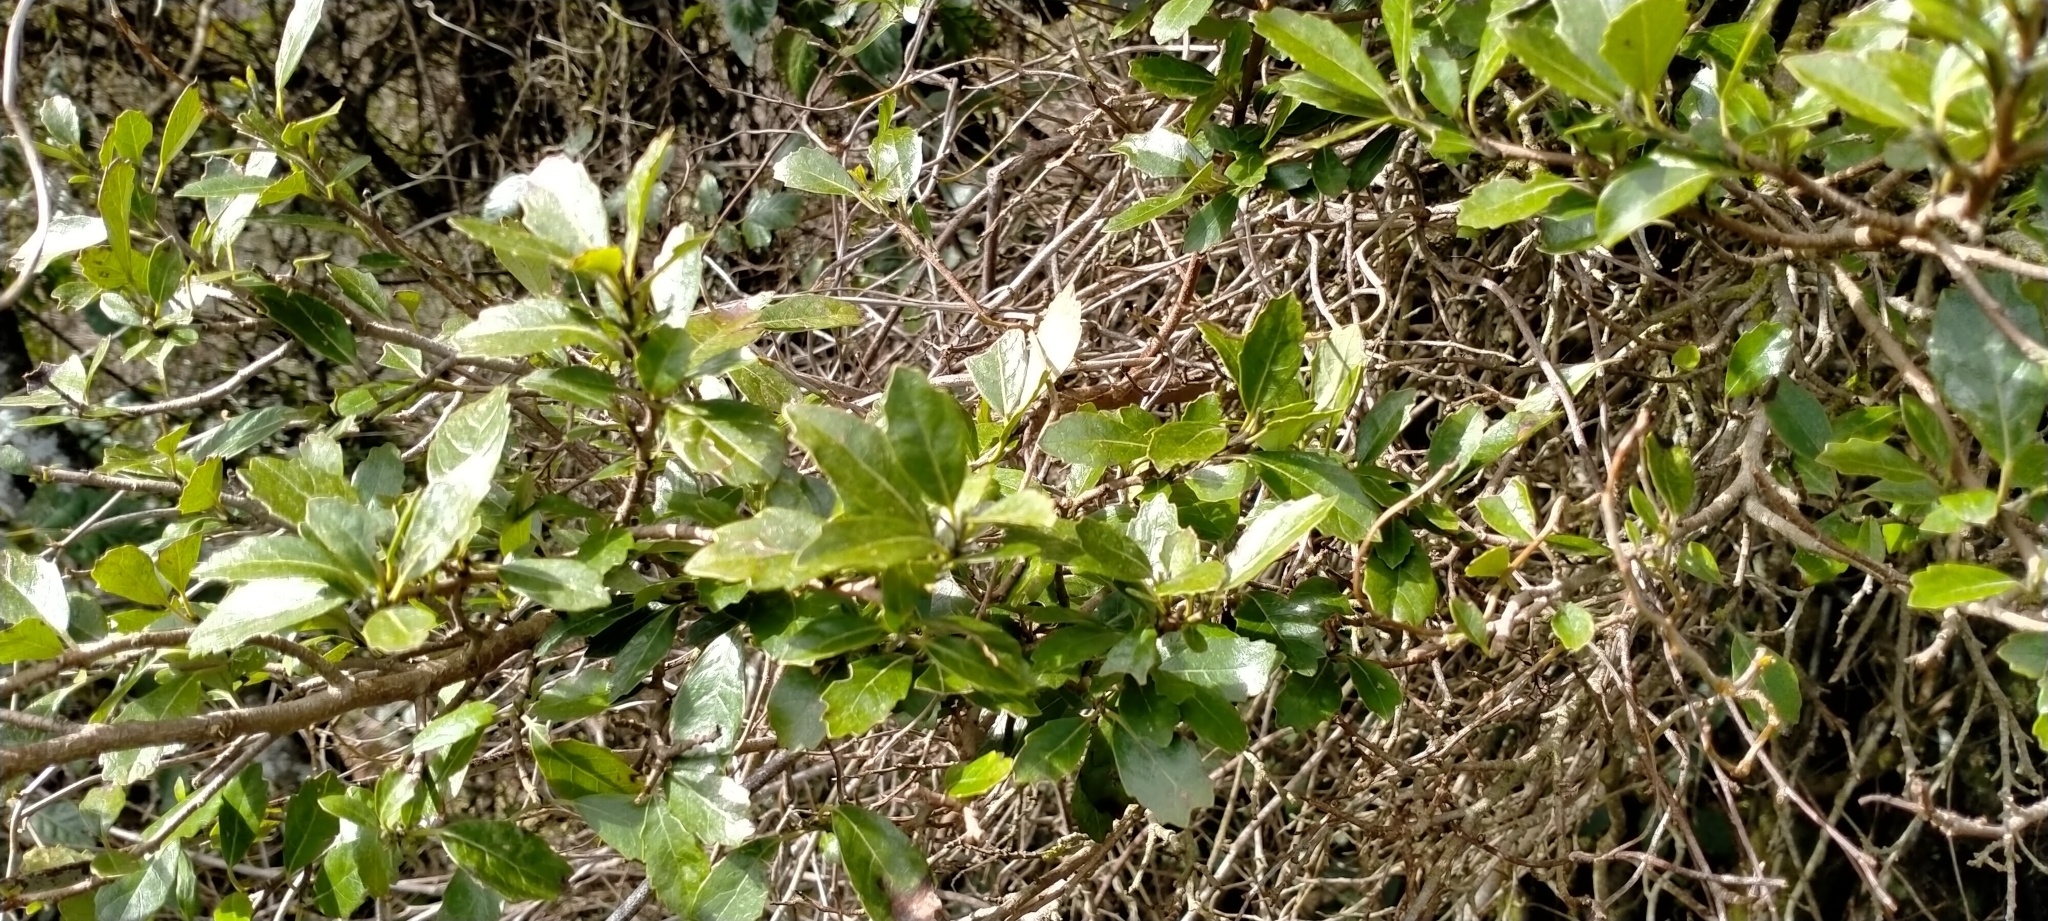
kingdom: Plantae
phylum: Tracheophyta
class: Magnoliopsida
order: Apiales
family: Pennantiaceae
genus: Pennantia
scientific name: Pennantia corymbosa
